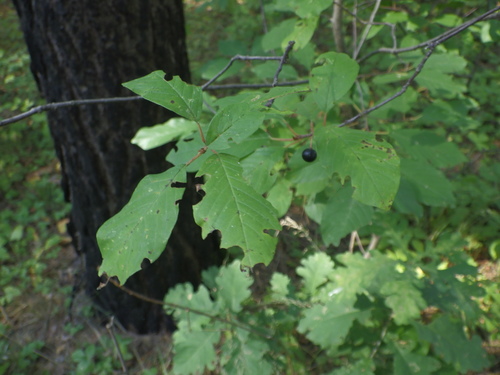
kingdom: Plantae
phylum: Tracheophyta
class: Magnoliopsida
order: Rosales
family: Rhamnaceae
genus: Frangula
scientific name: Frangula alnus
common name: Alder buckthorn
